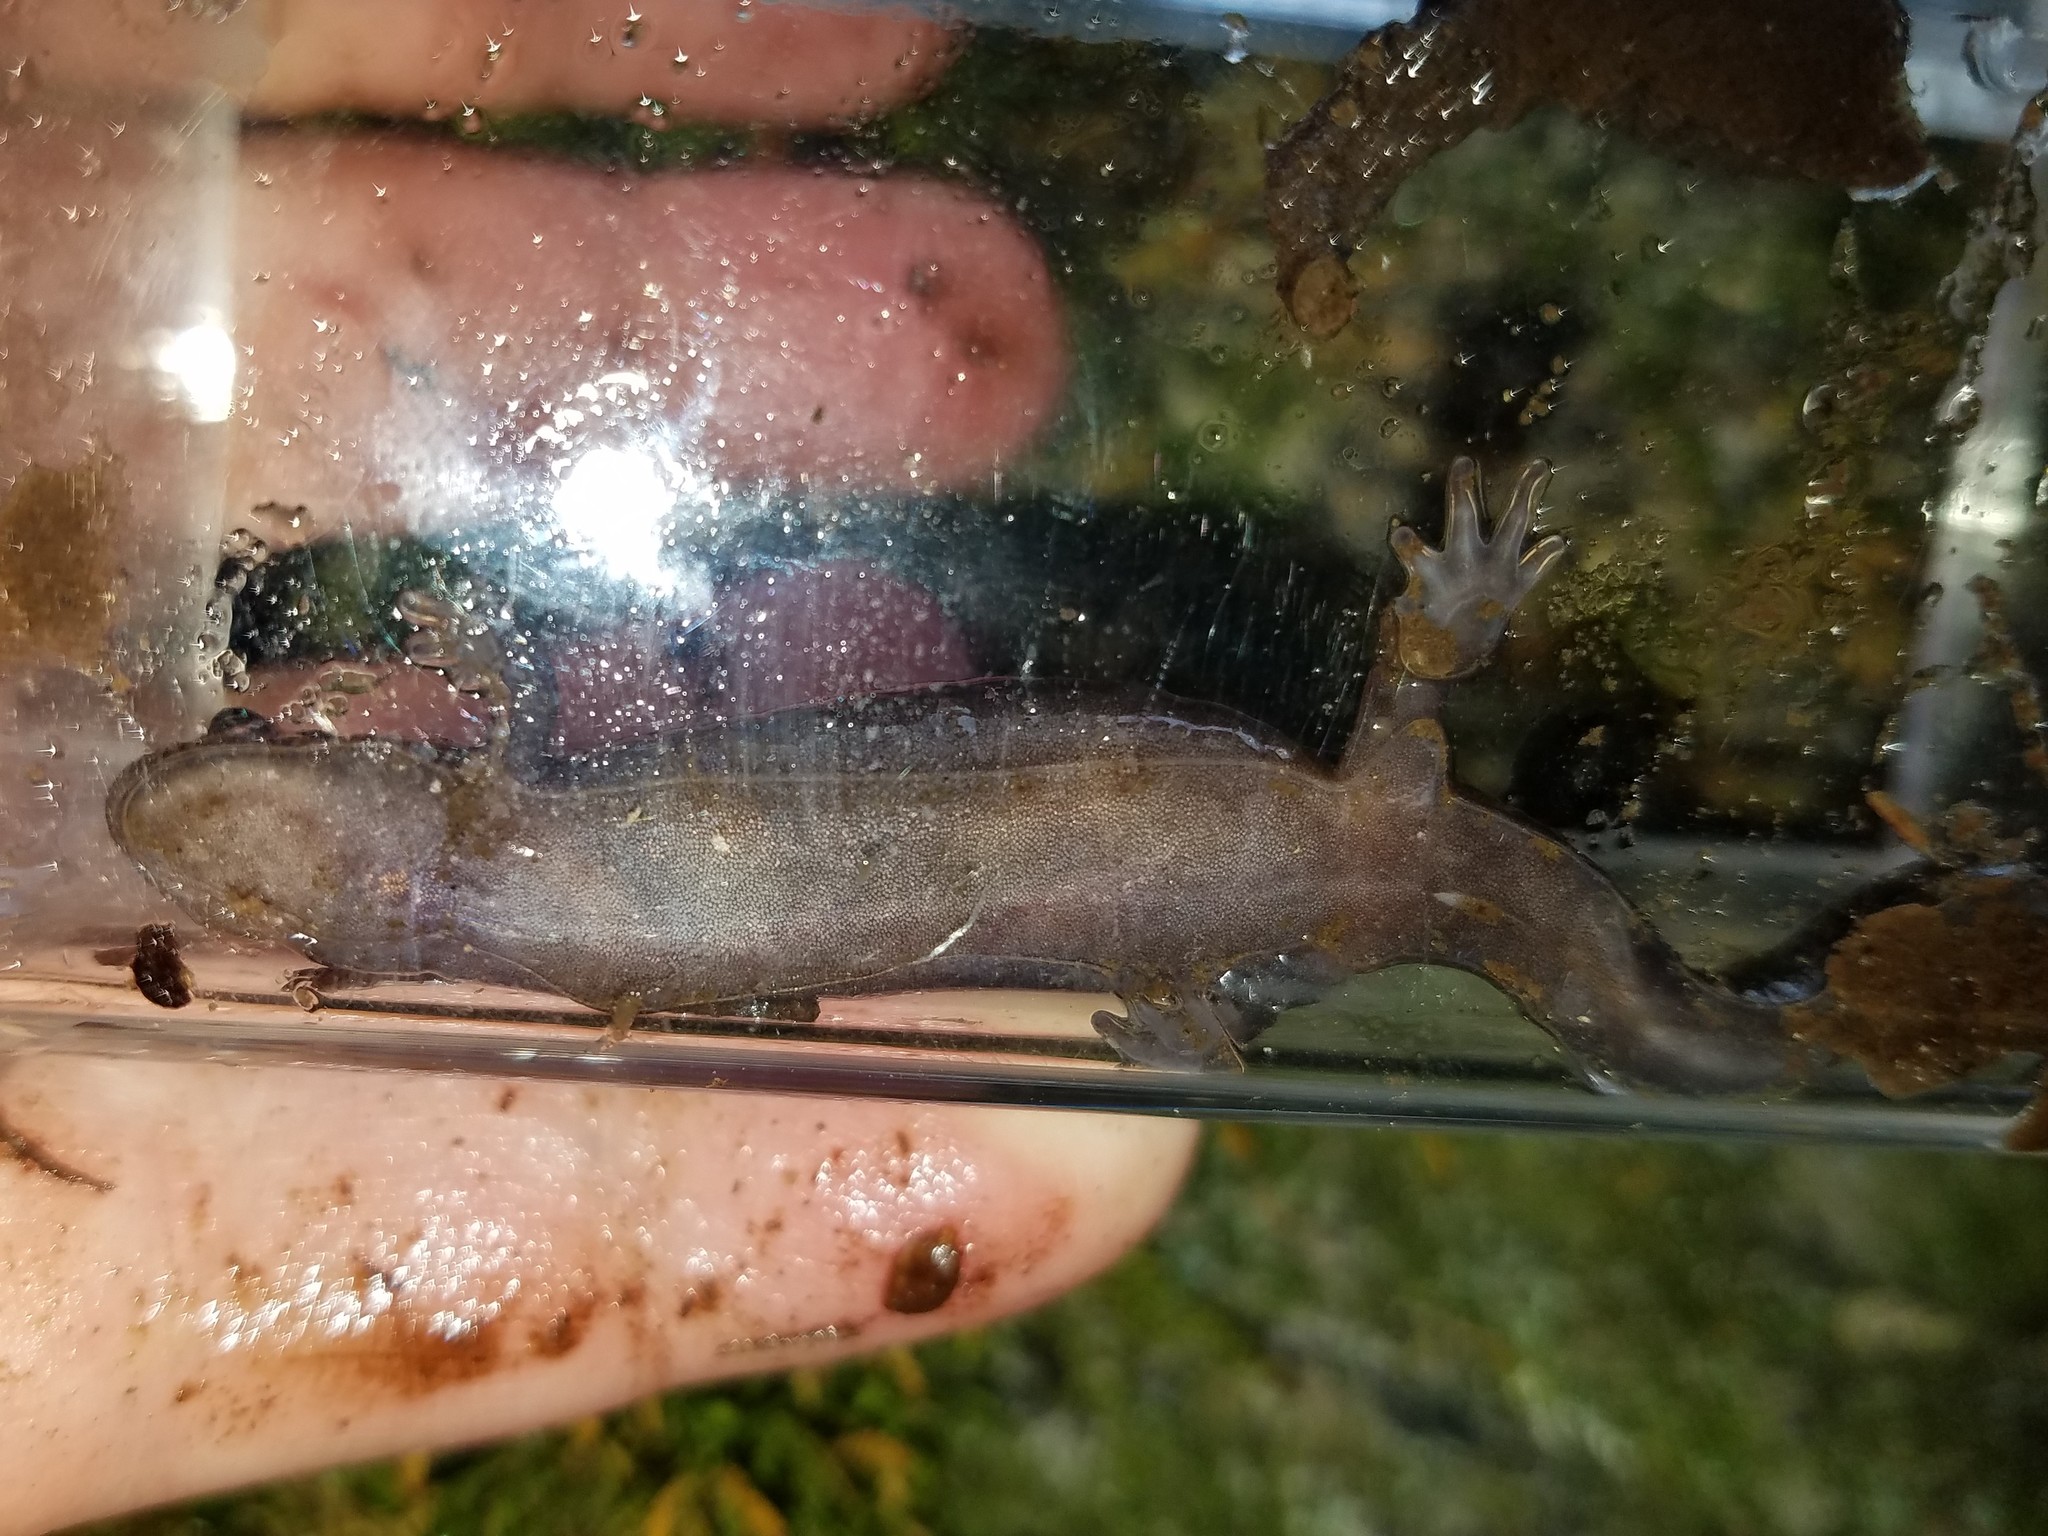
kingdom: Animalia
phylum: Chordata
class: Amphibia
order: Caudata
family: Plethodontidae
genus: Desmognathus
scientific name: Desmognathus ocoee
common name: Ocoee salamander
